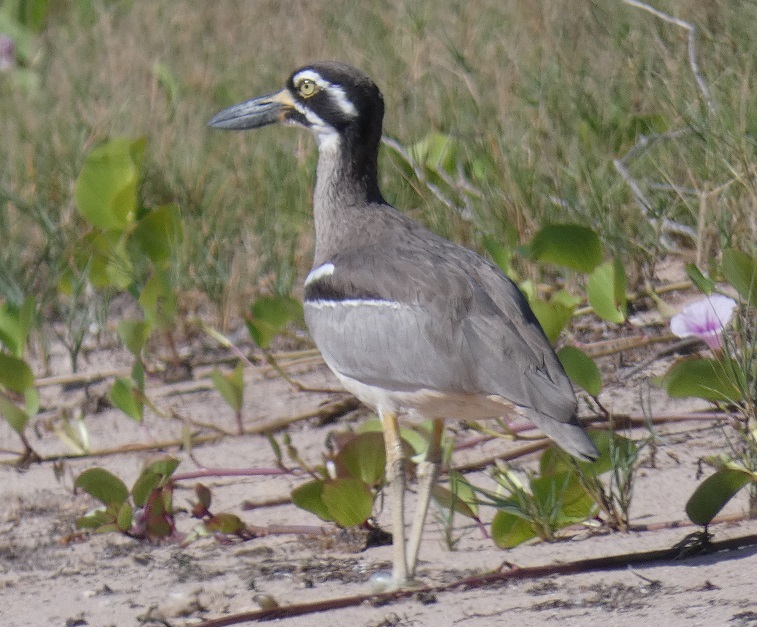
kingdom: Animalia
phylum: Chordata
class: Aves
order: Charadriiformes
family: Burhinidae
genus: Esacus
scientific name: Esacus magnirostris
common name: Beach stone-curlew
